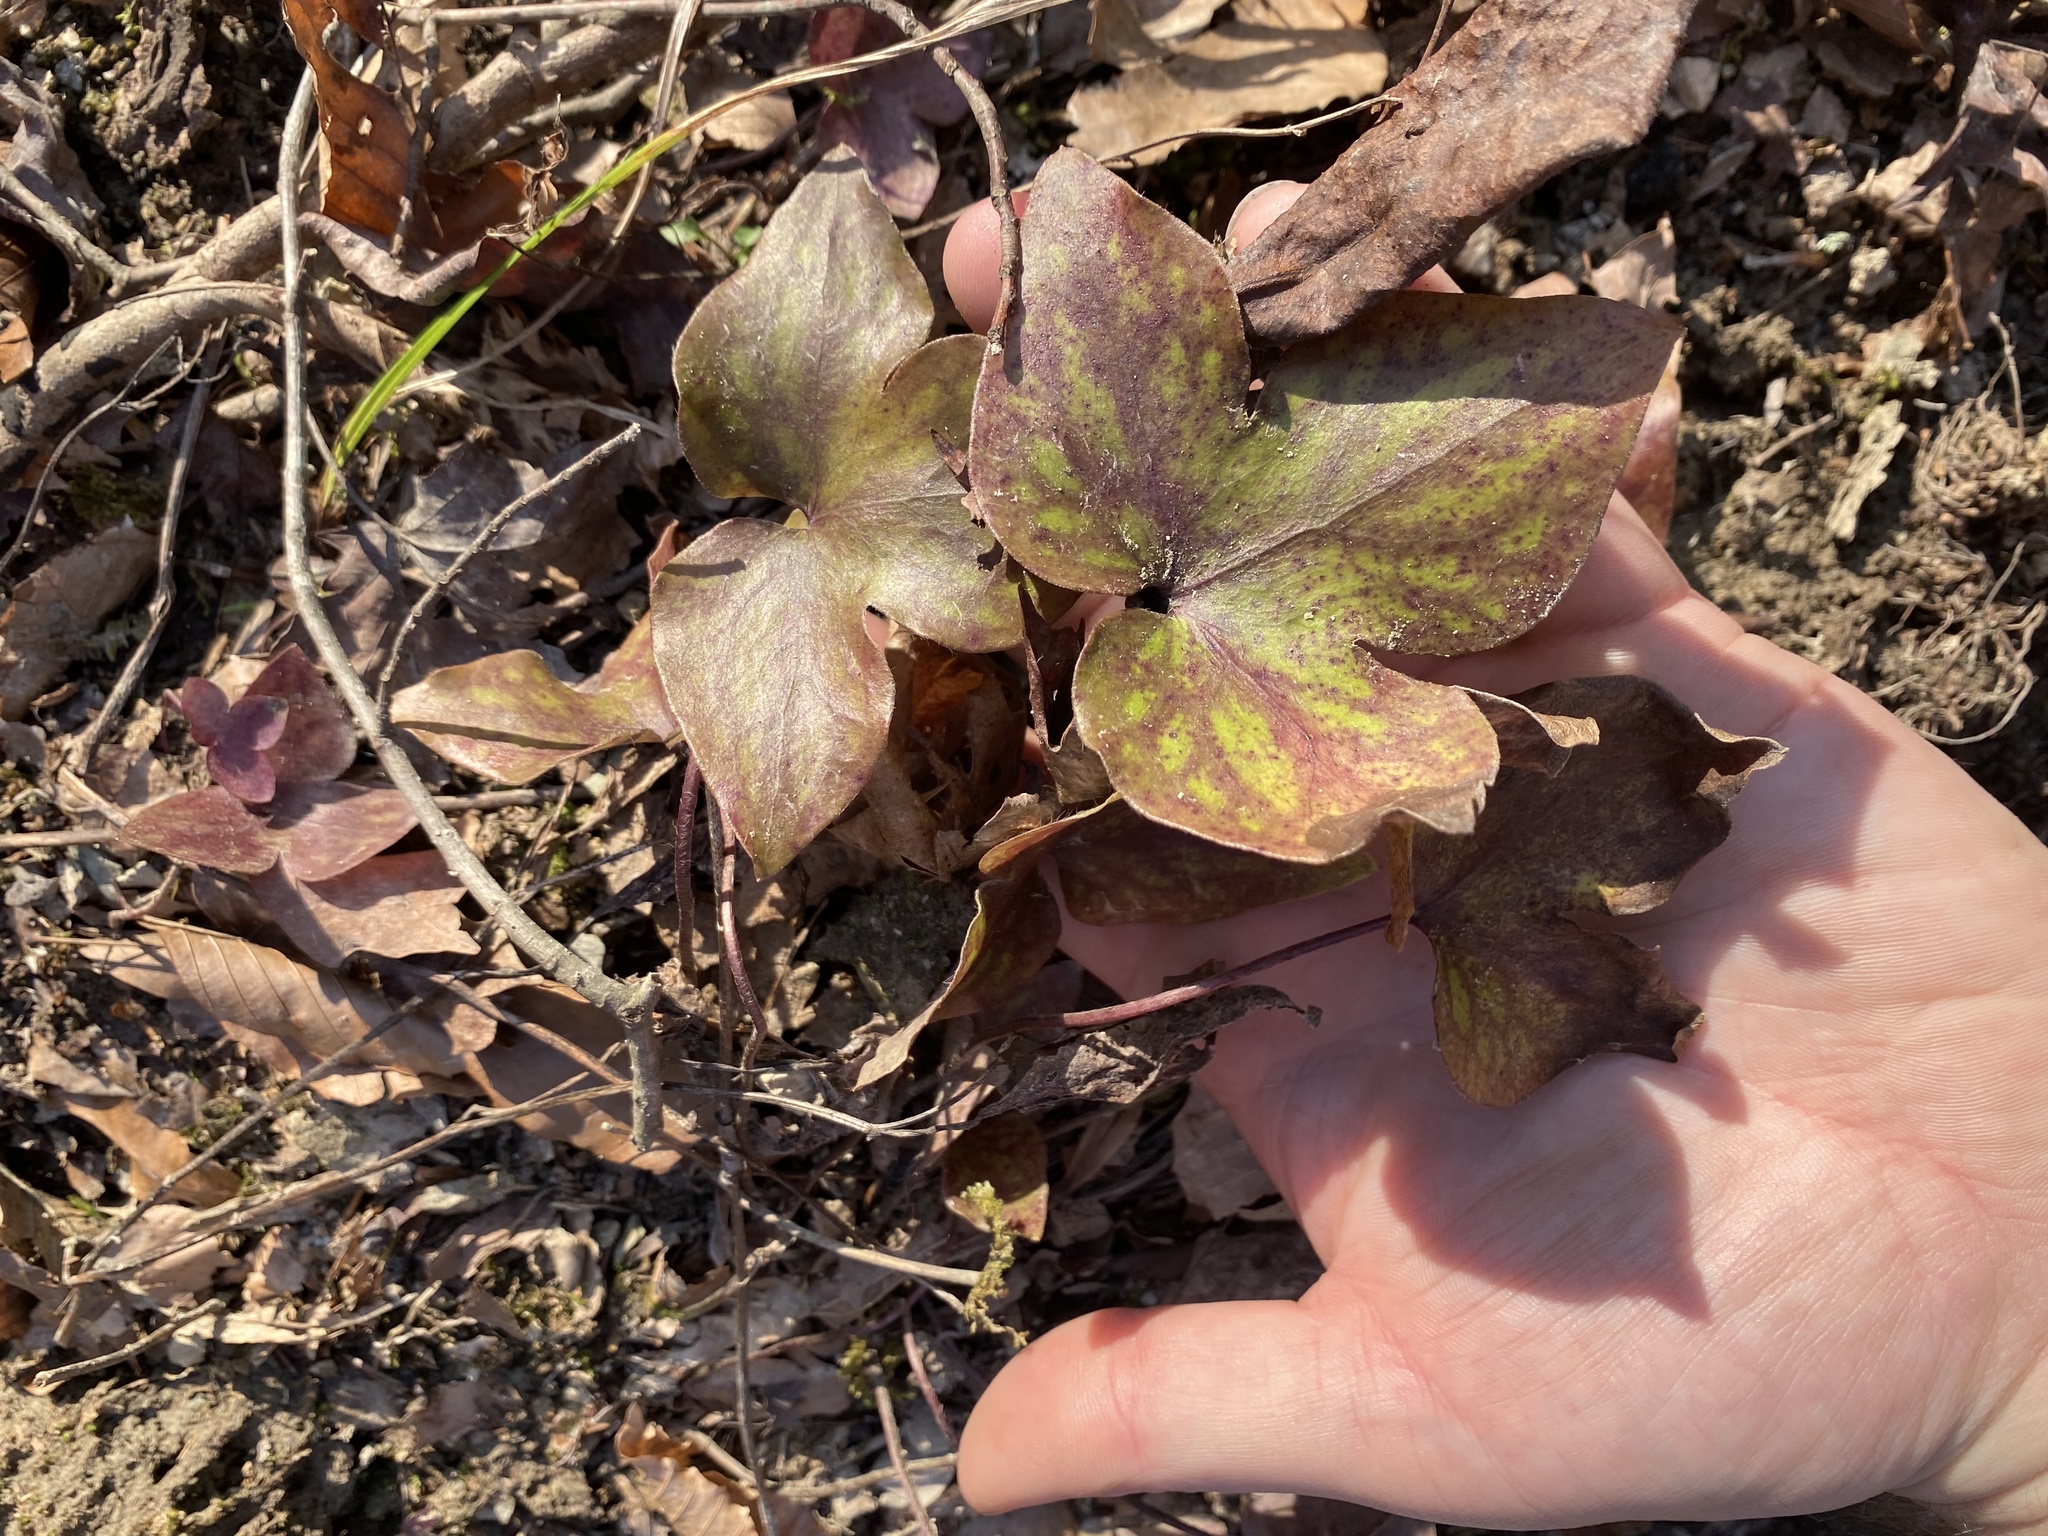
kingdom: Plantae
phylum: Tracheophyta
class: Magnoliopsida
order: Ranunculales
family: Ranunculaceae
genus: Hepatica
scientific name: Hepatica acutiloba
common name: Sharp-lobed hepatica
